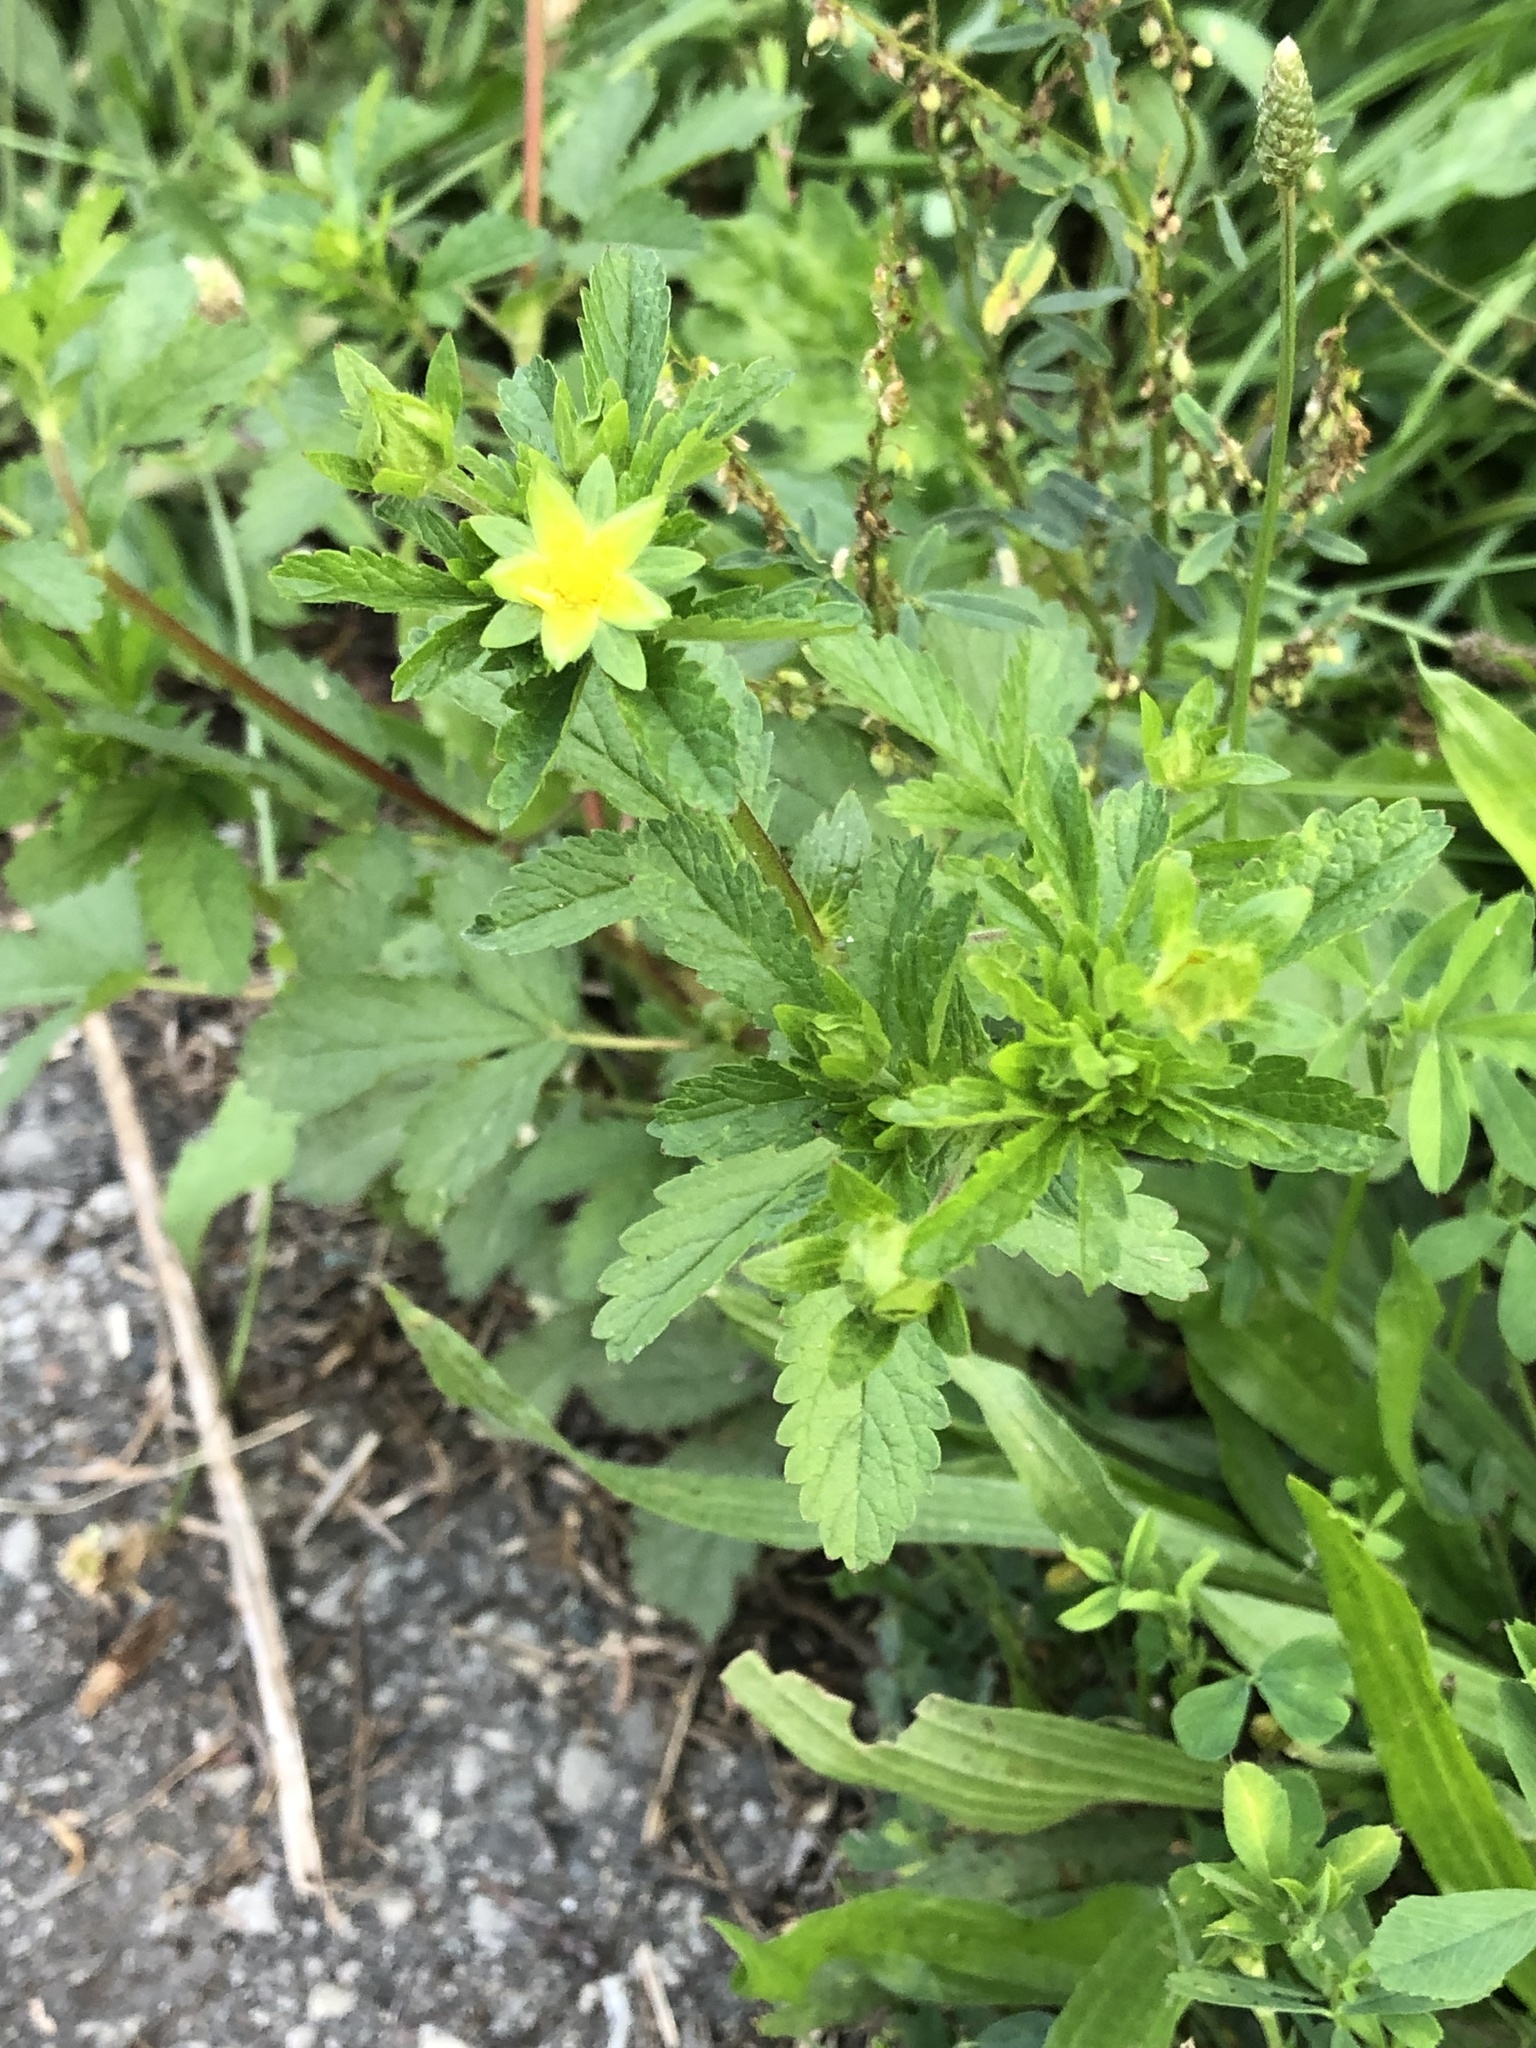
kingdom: Plantae
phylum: Tracheophyta
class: Magnoliopsida
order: Rosales
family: Rosaceae
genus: Potentilla
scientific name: Potentilla norvegica
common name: Ternate-leaved cinquefoil
